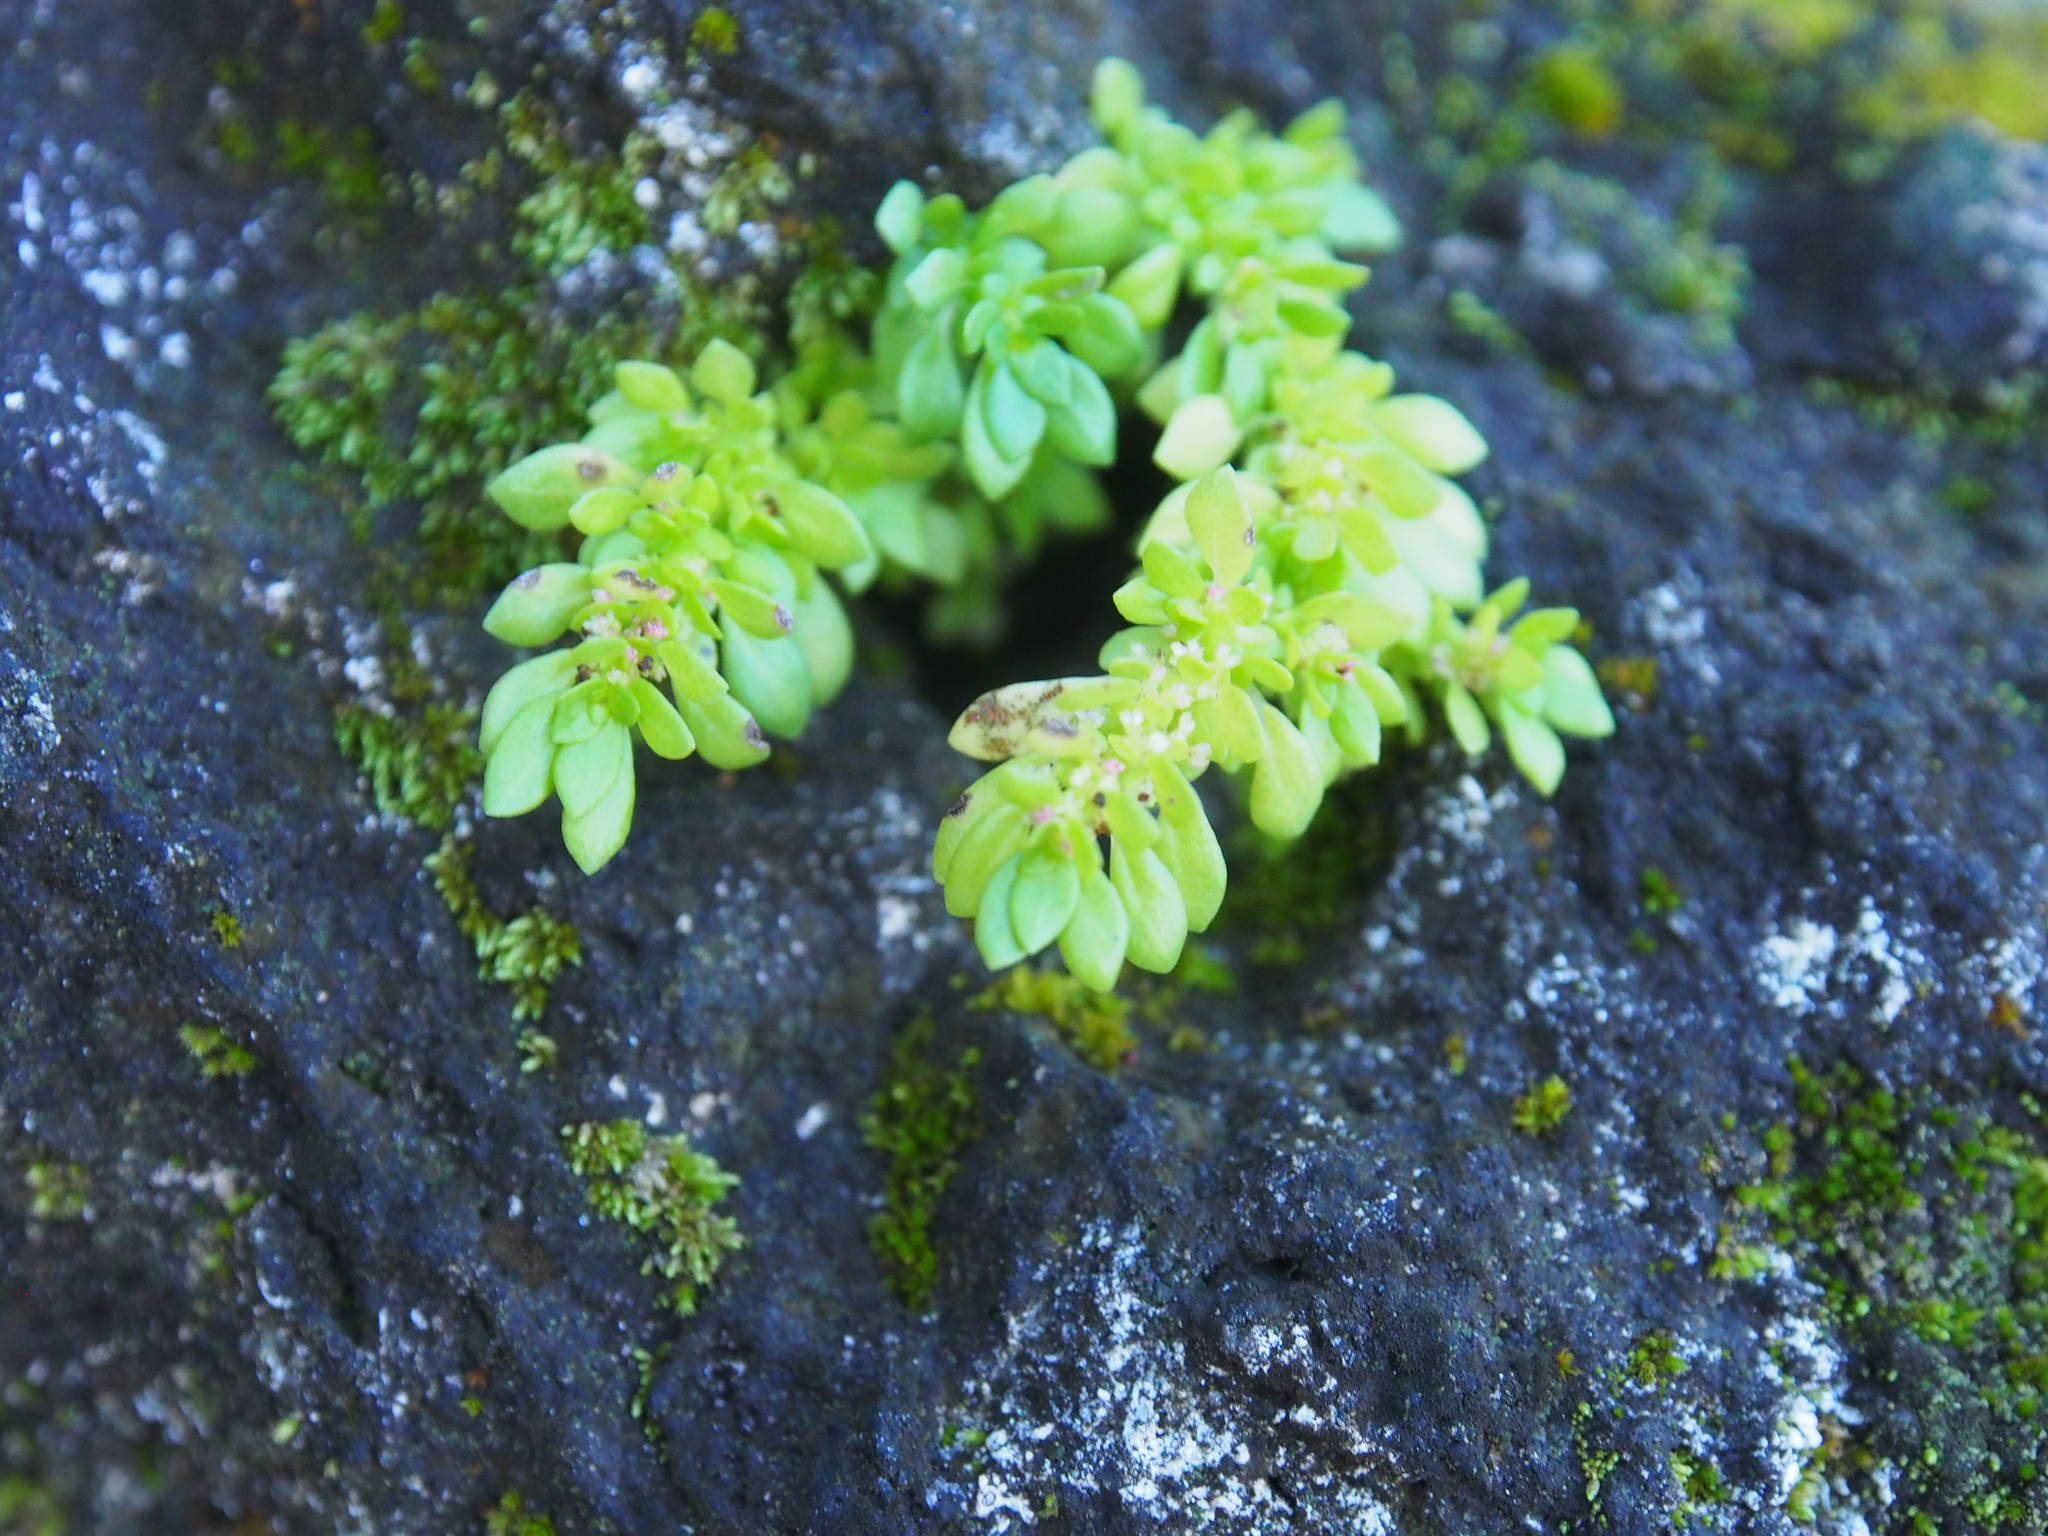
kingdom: Plantae
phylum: Tracheophyta
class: Magnoliopsida
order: Rosales
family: Urticaceae
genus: Pilea
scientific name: Pilea microphylla
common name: Artillery-plant
